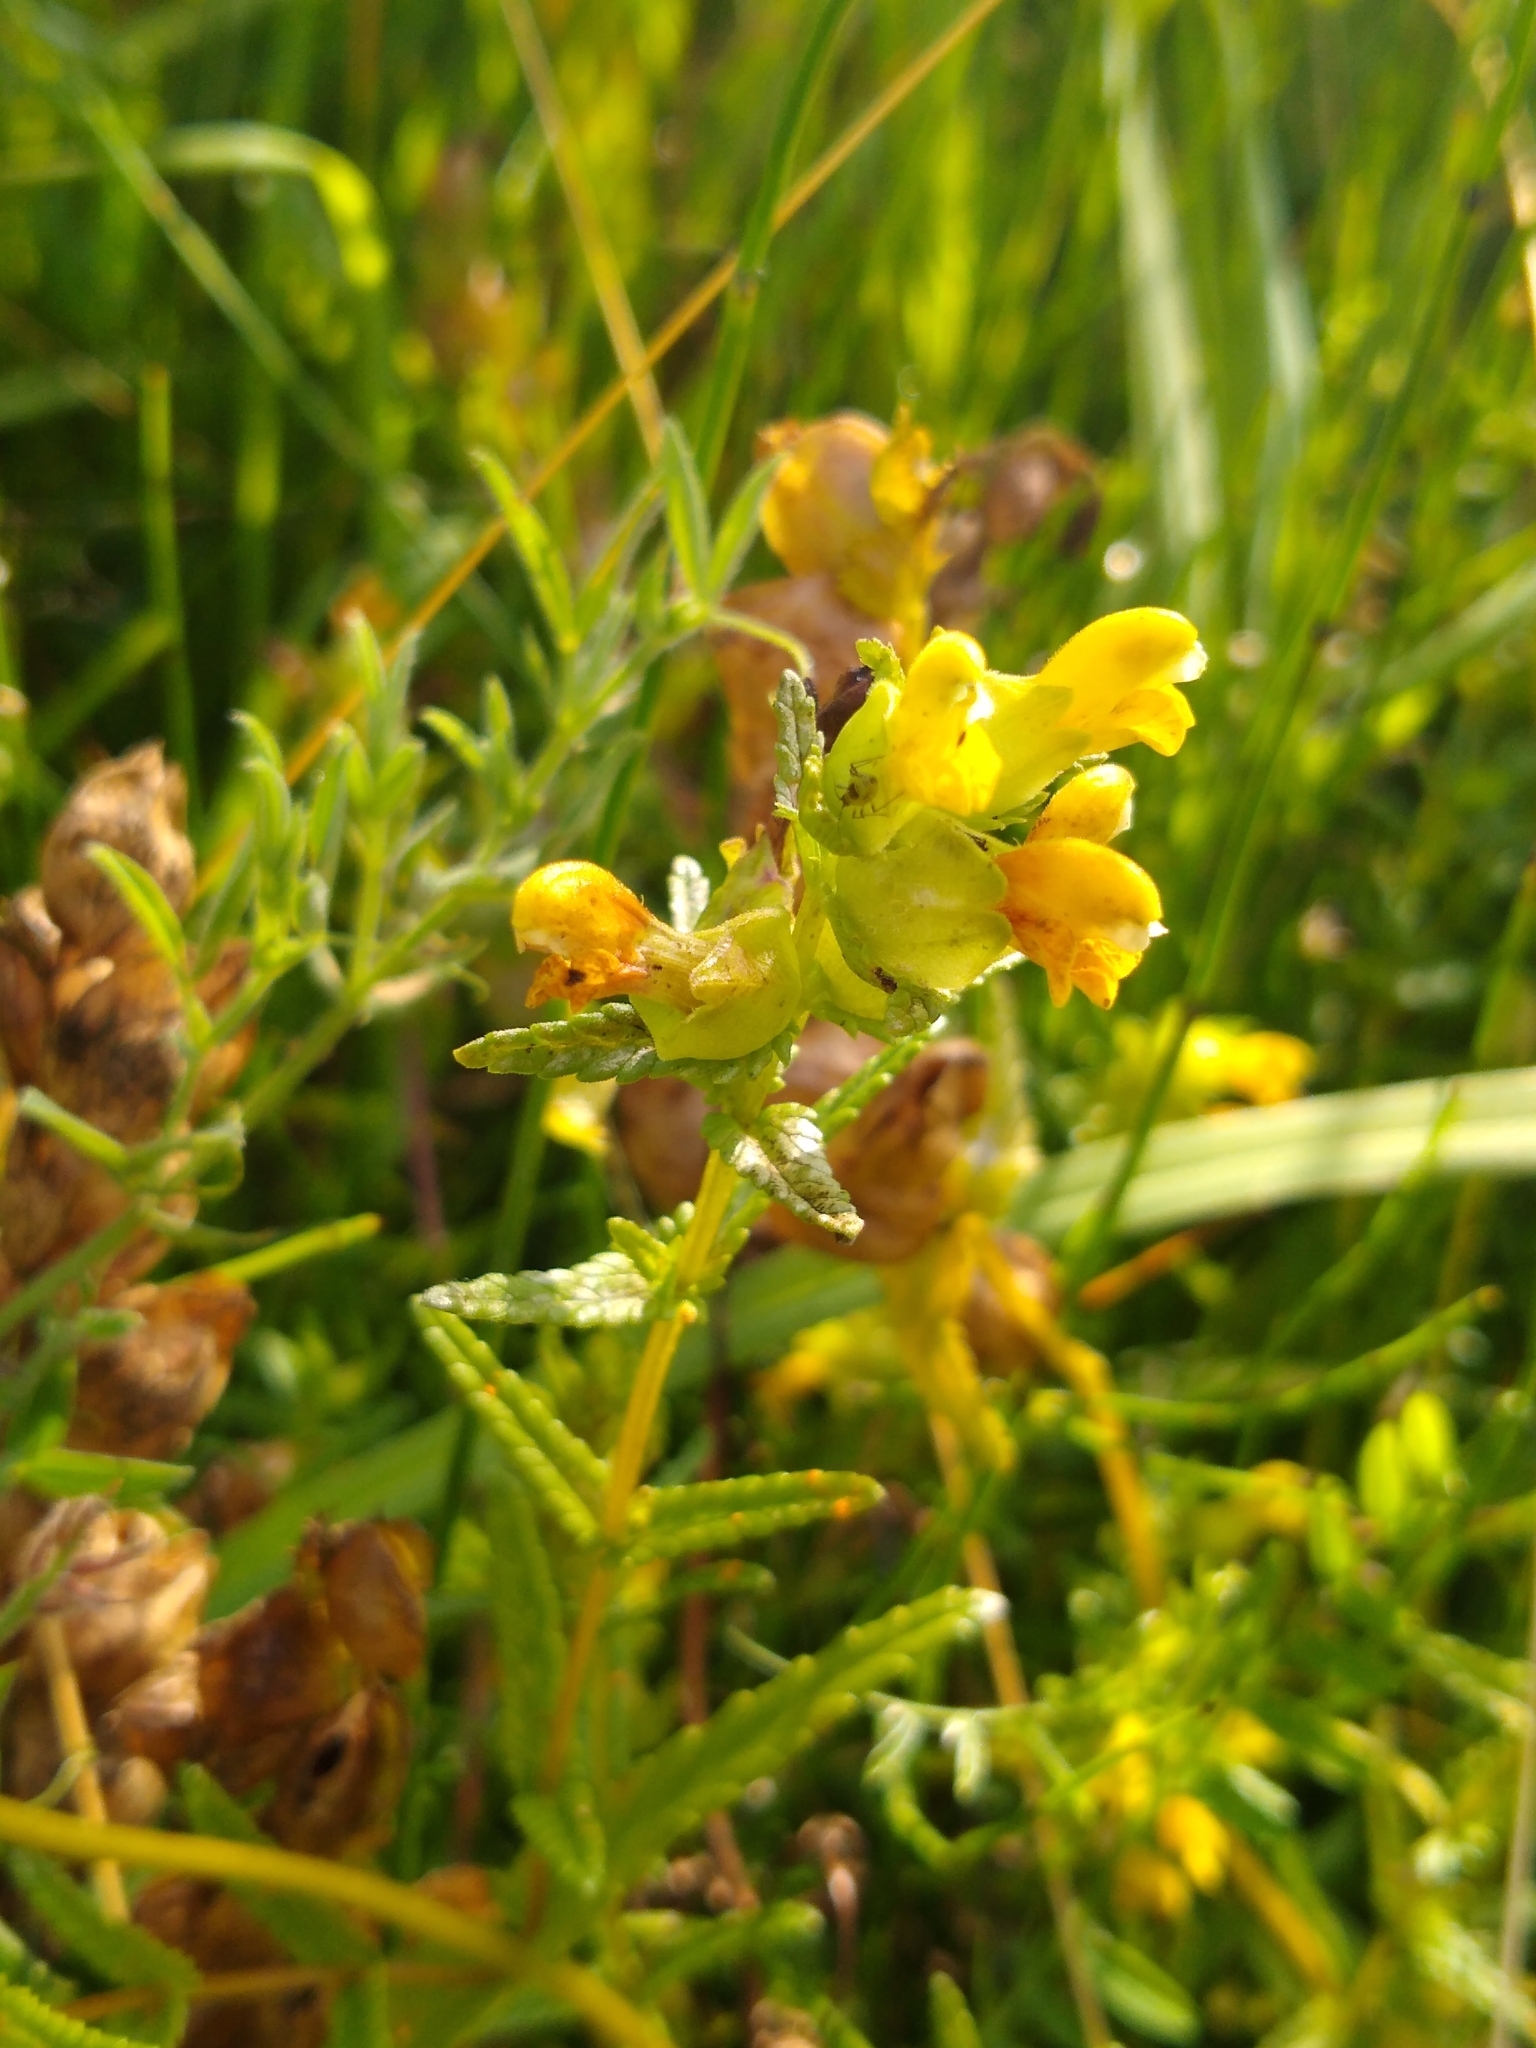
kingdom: Plantae
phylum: Tracheophyta
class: Magnoliopsida
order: Lamiales
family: Orobanchaceae
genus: Rhinanthus
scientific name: Rhinanthus minor
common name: Yellow-rattle
